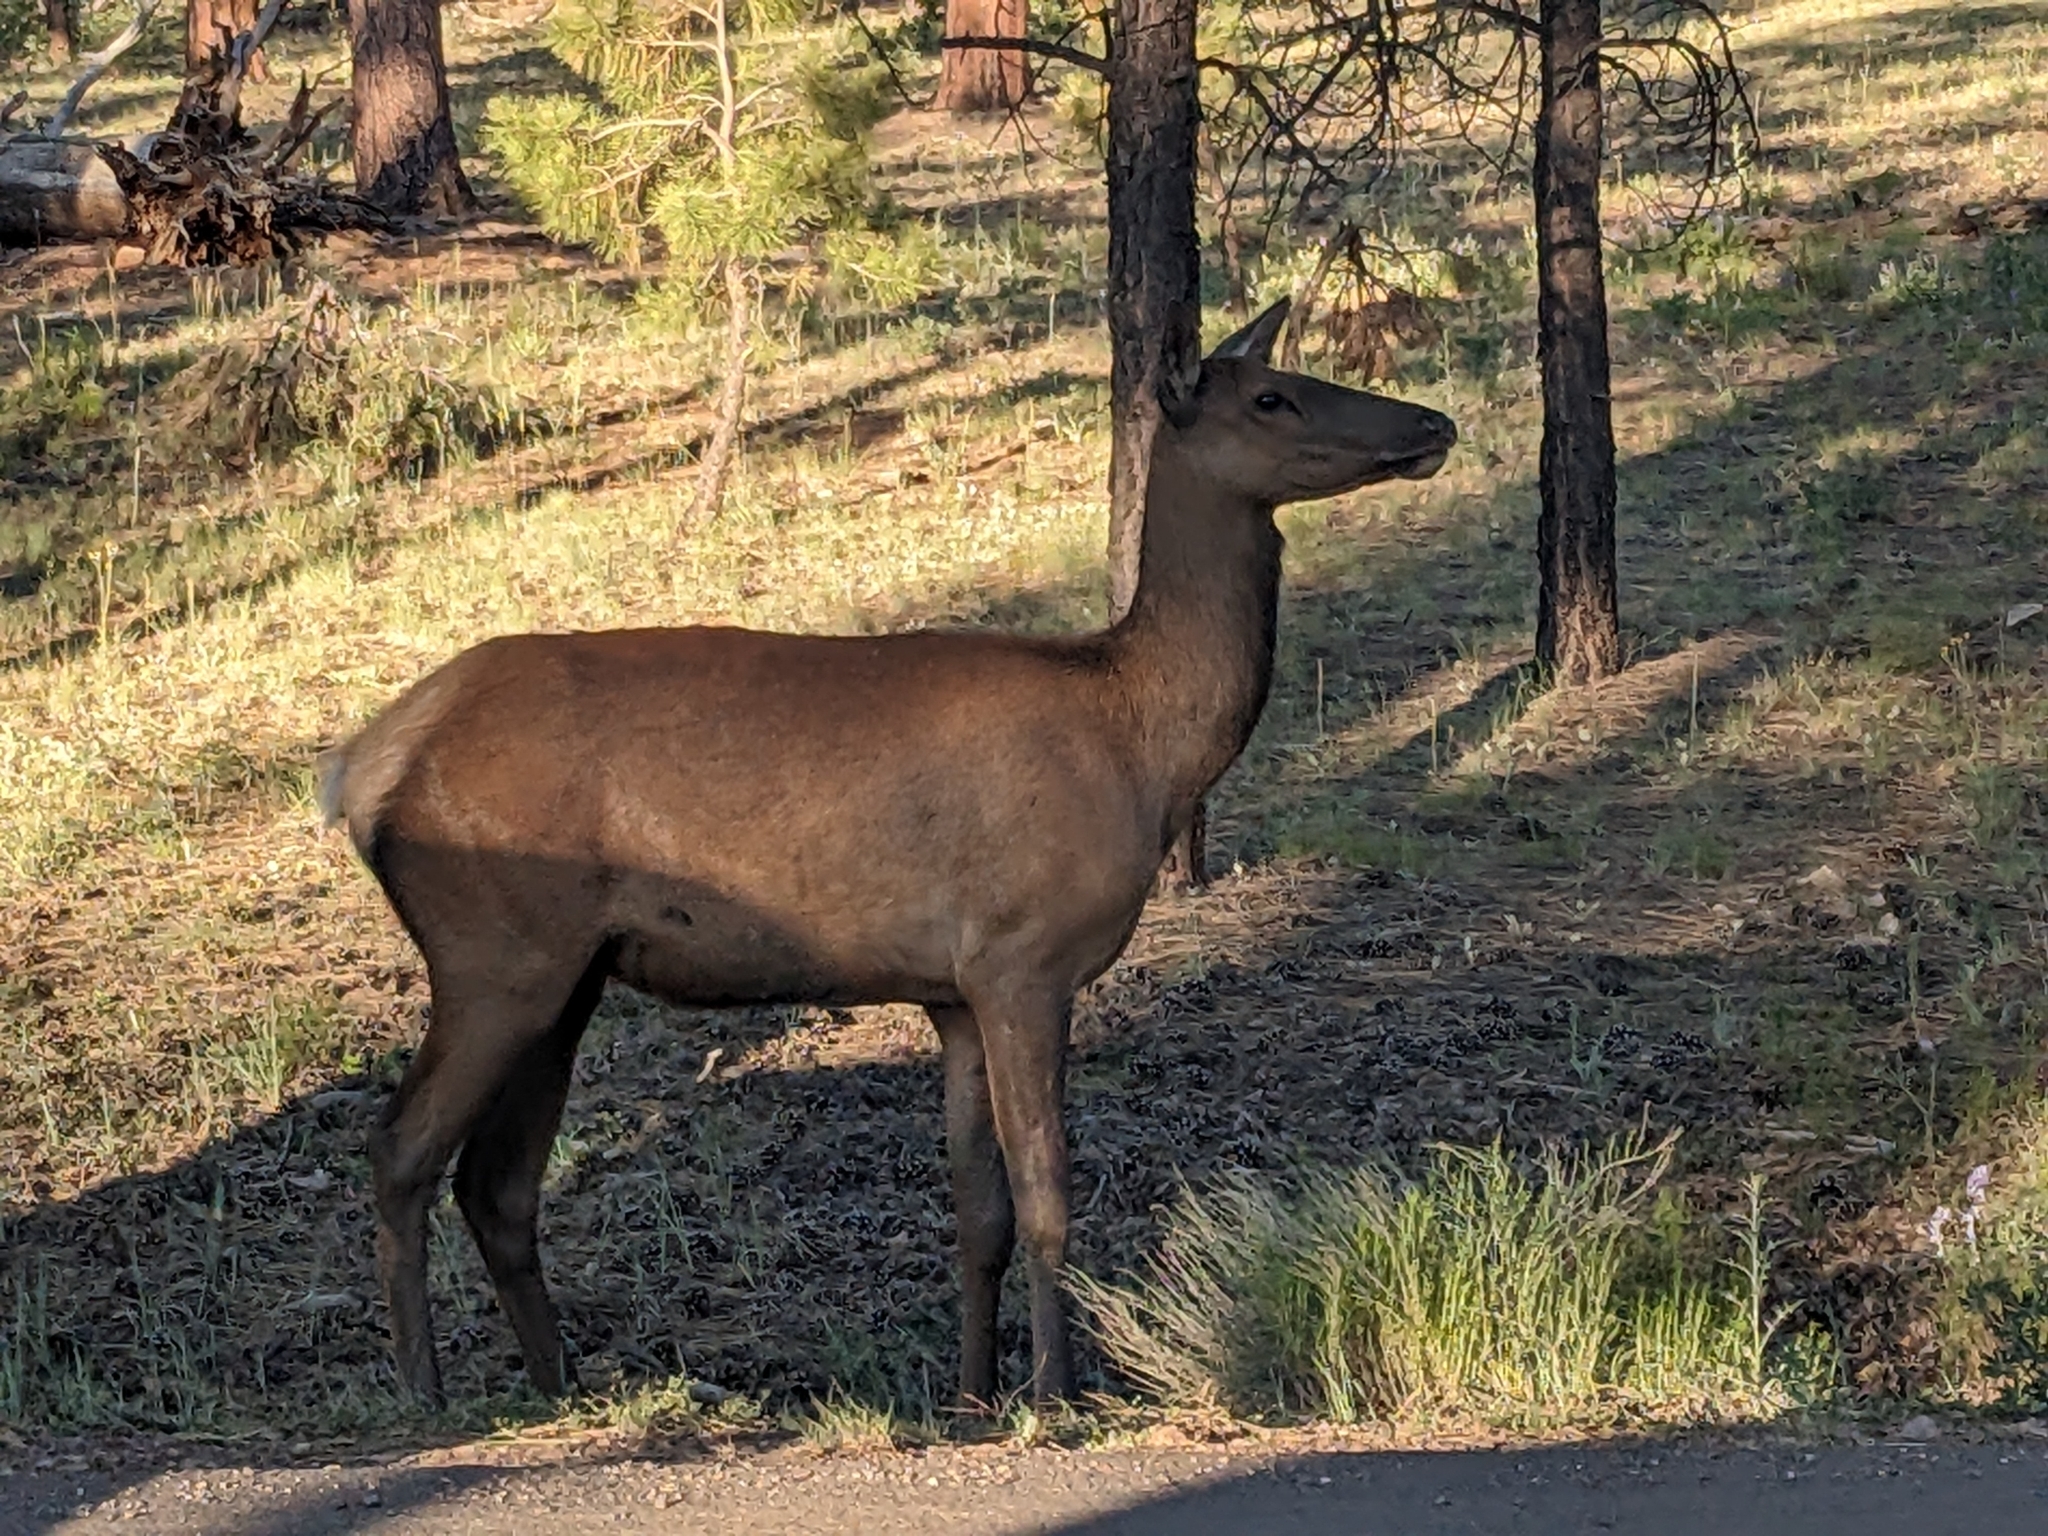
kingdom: Animalia
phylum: Chordata
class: Mammalia
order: Artiodactyla
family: Cervidae
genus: Cervus
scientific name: Cervus elaphus
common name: Red deer
